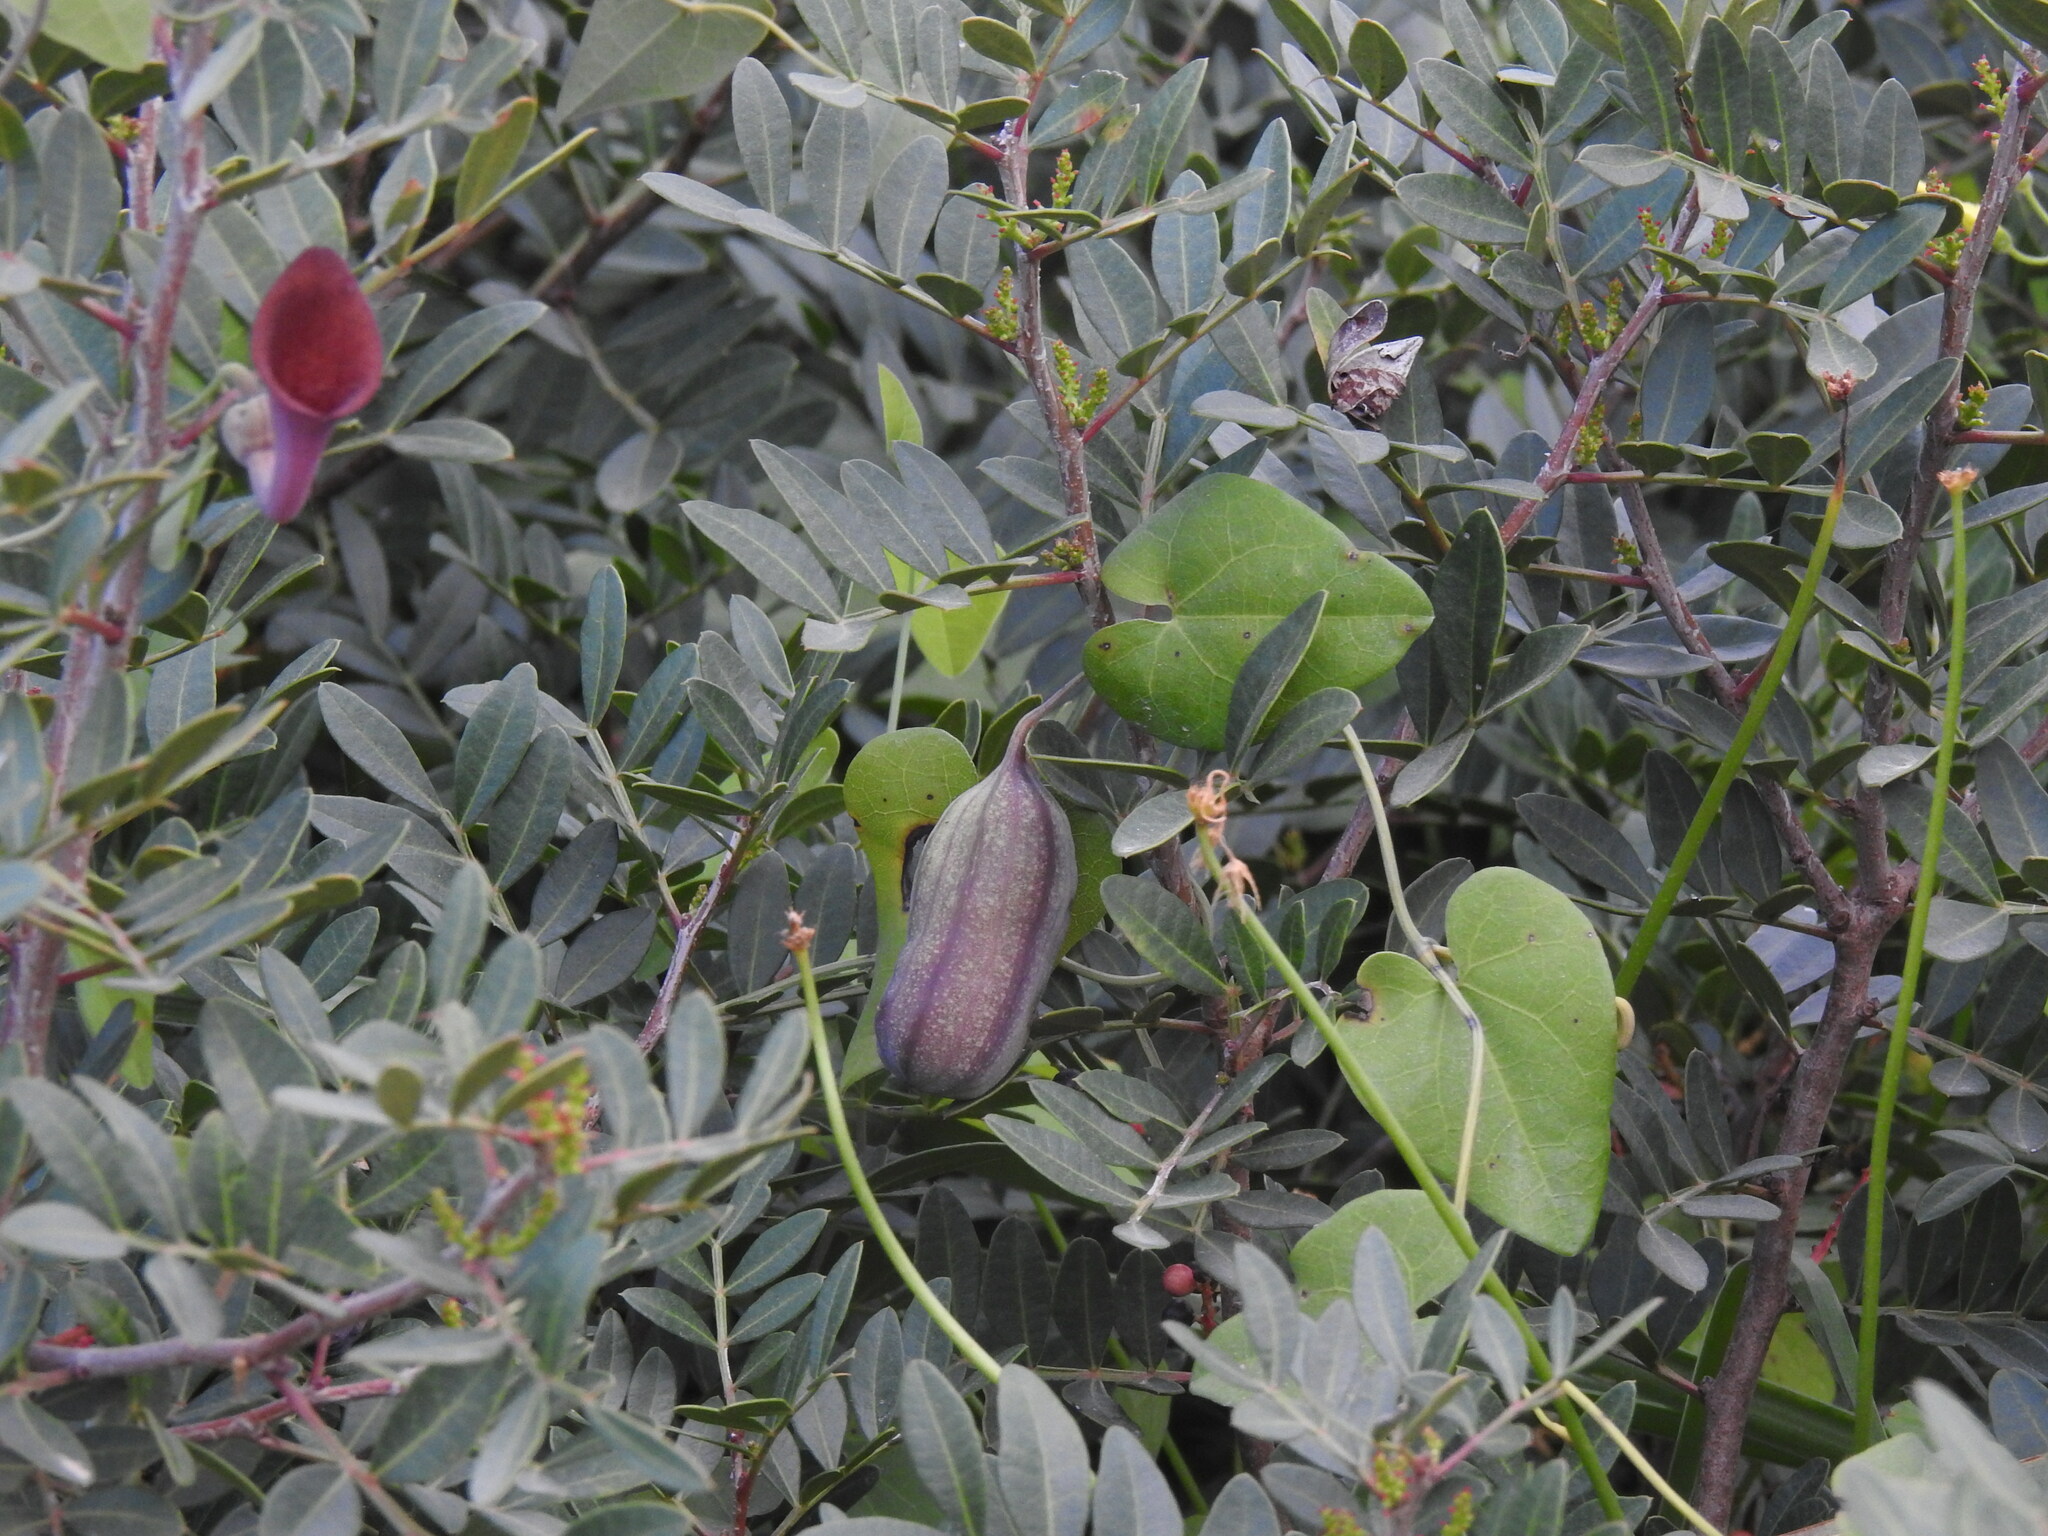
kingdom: Plantae
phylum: Tracheophyta
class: Magnoliopsida
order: Piperales
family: Aristolochiaceae
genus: Aristolochia
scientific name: Aristolochia baetica
